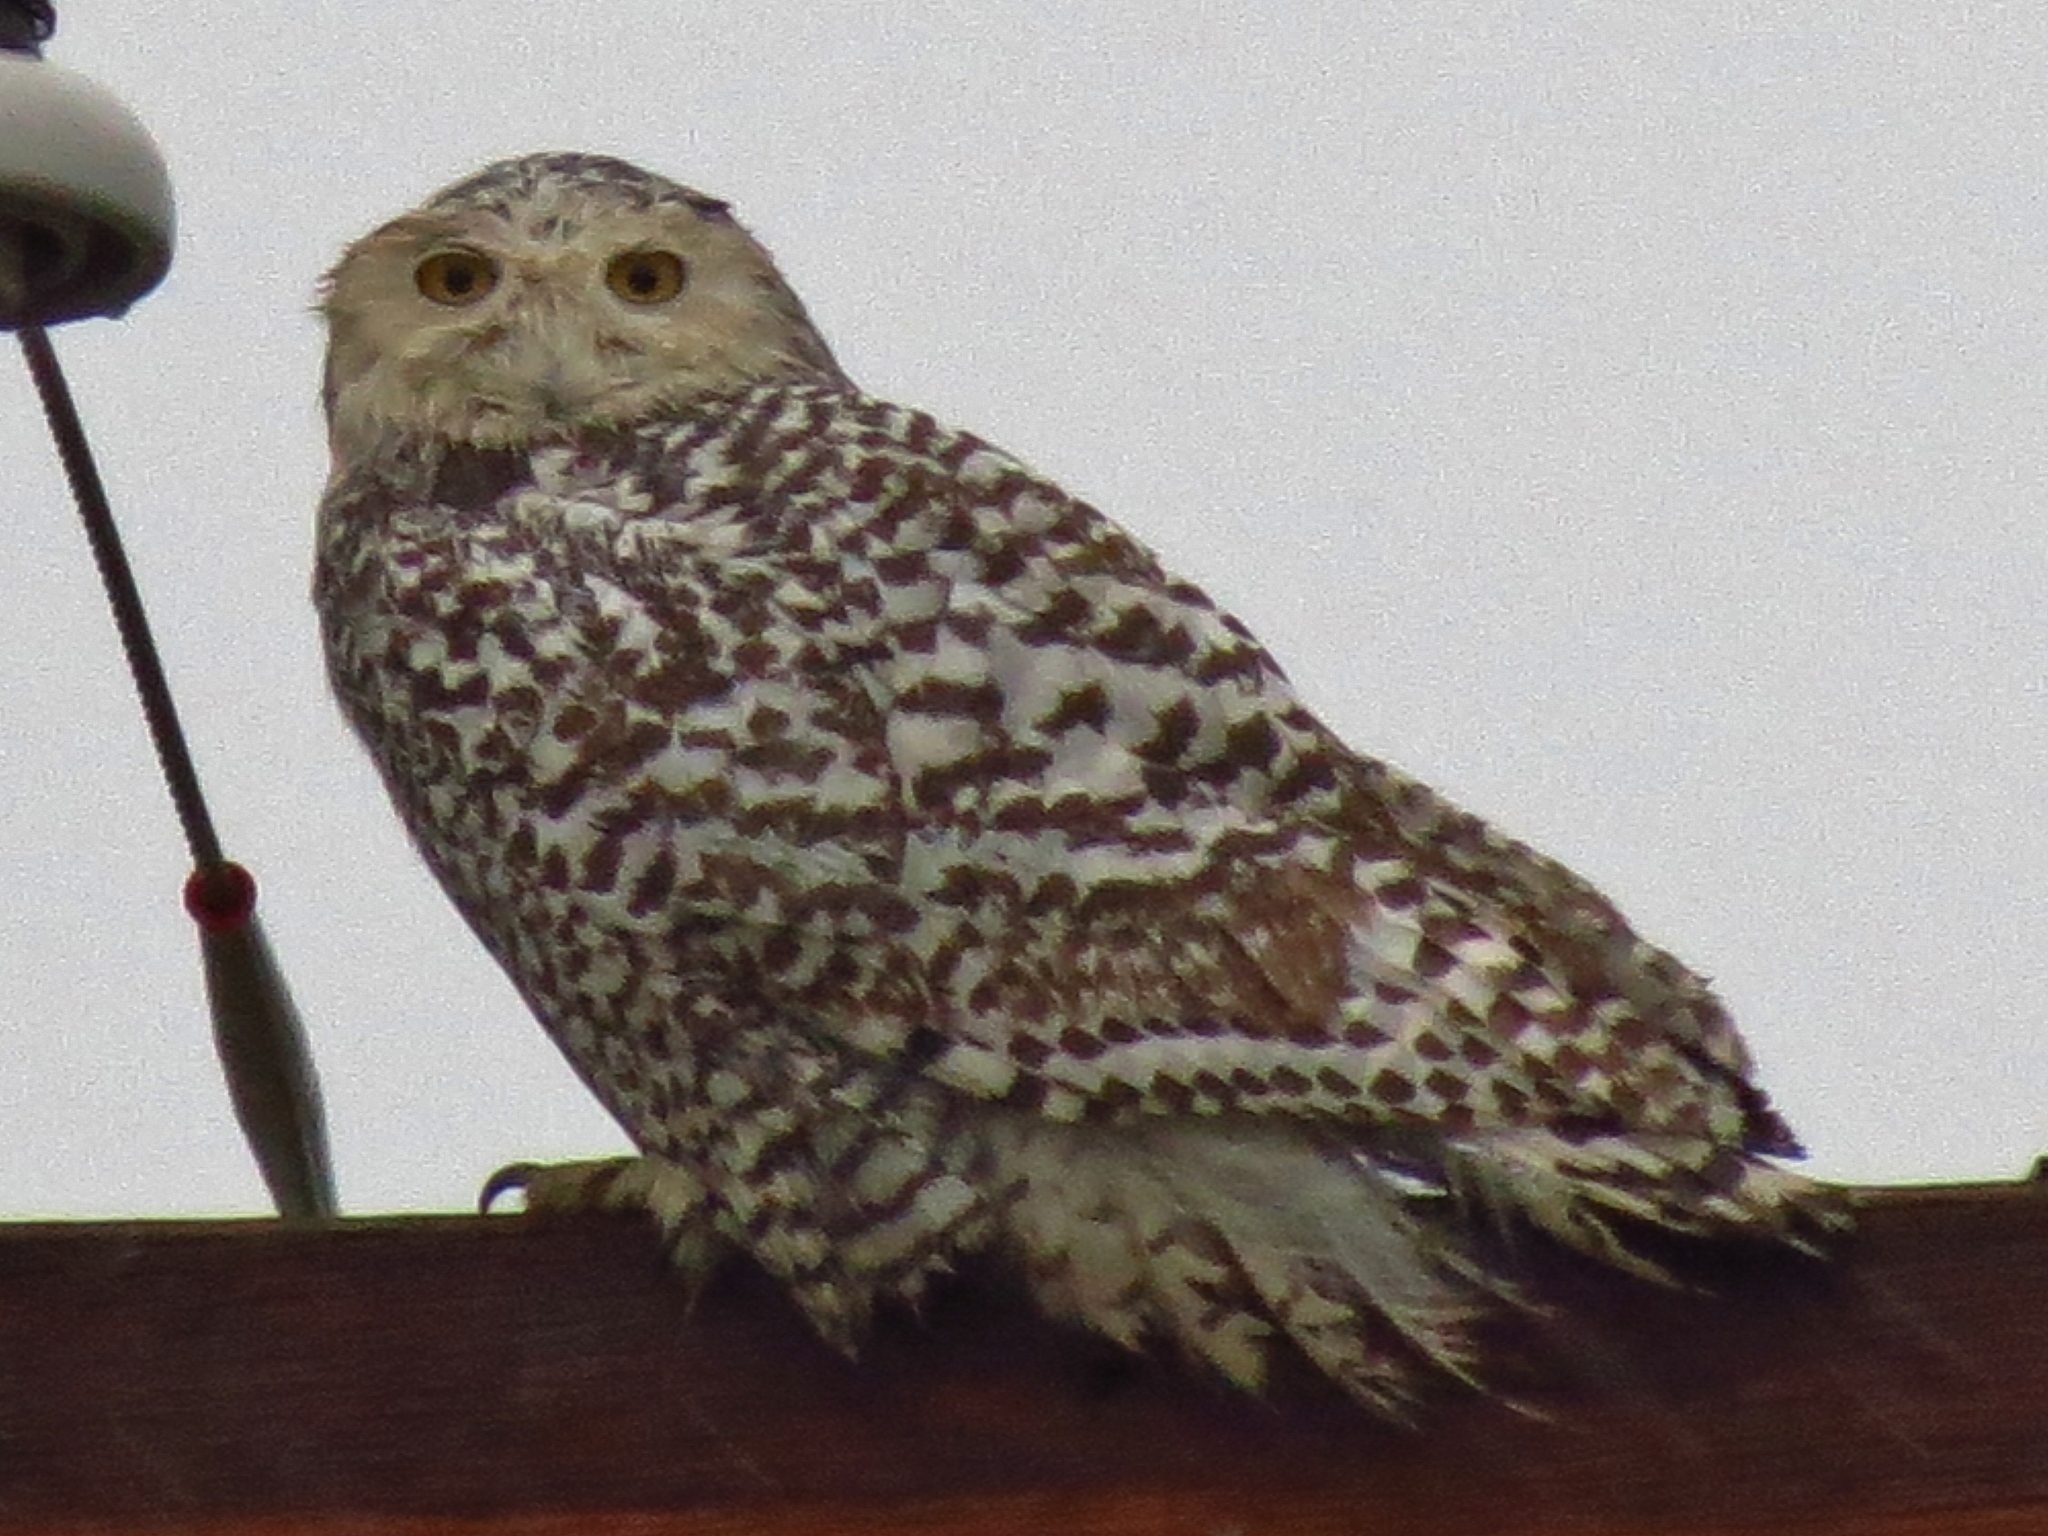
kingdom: Animalia
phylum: Chordata
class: Aves
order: Strigiformes
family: Strigidae
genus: Bubo
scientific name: Bubo scandiacus
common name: Snowy owl
